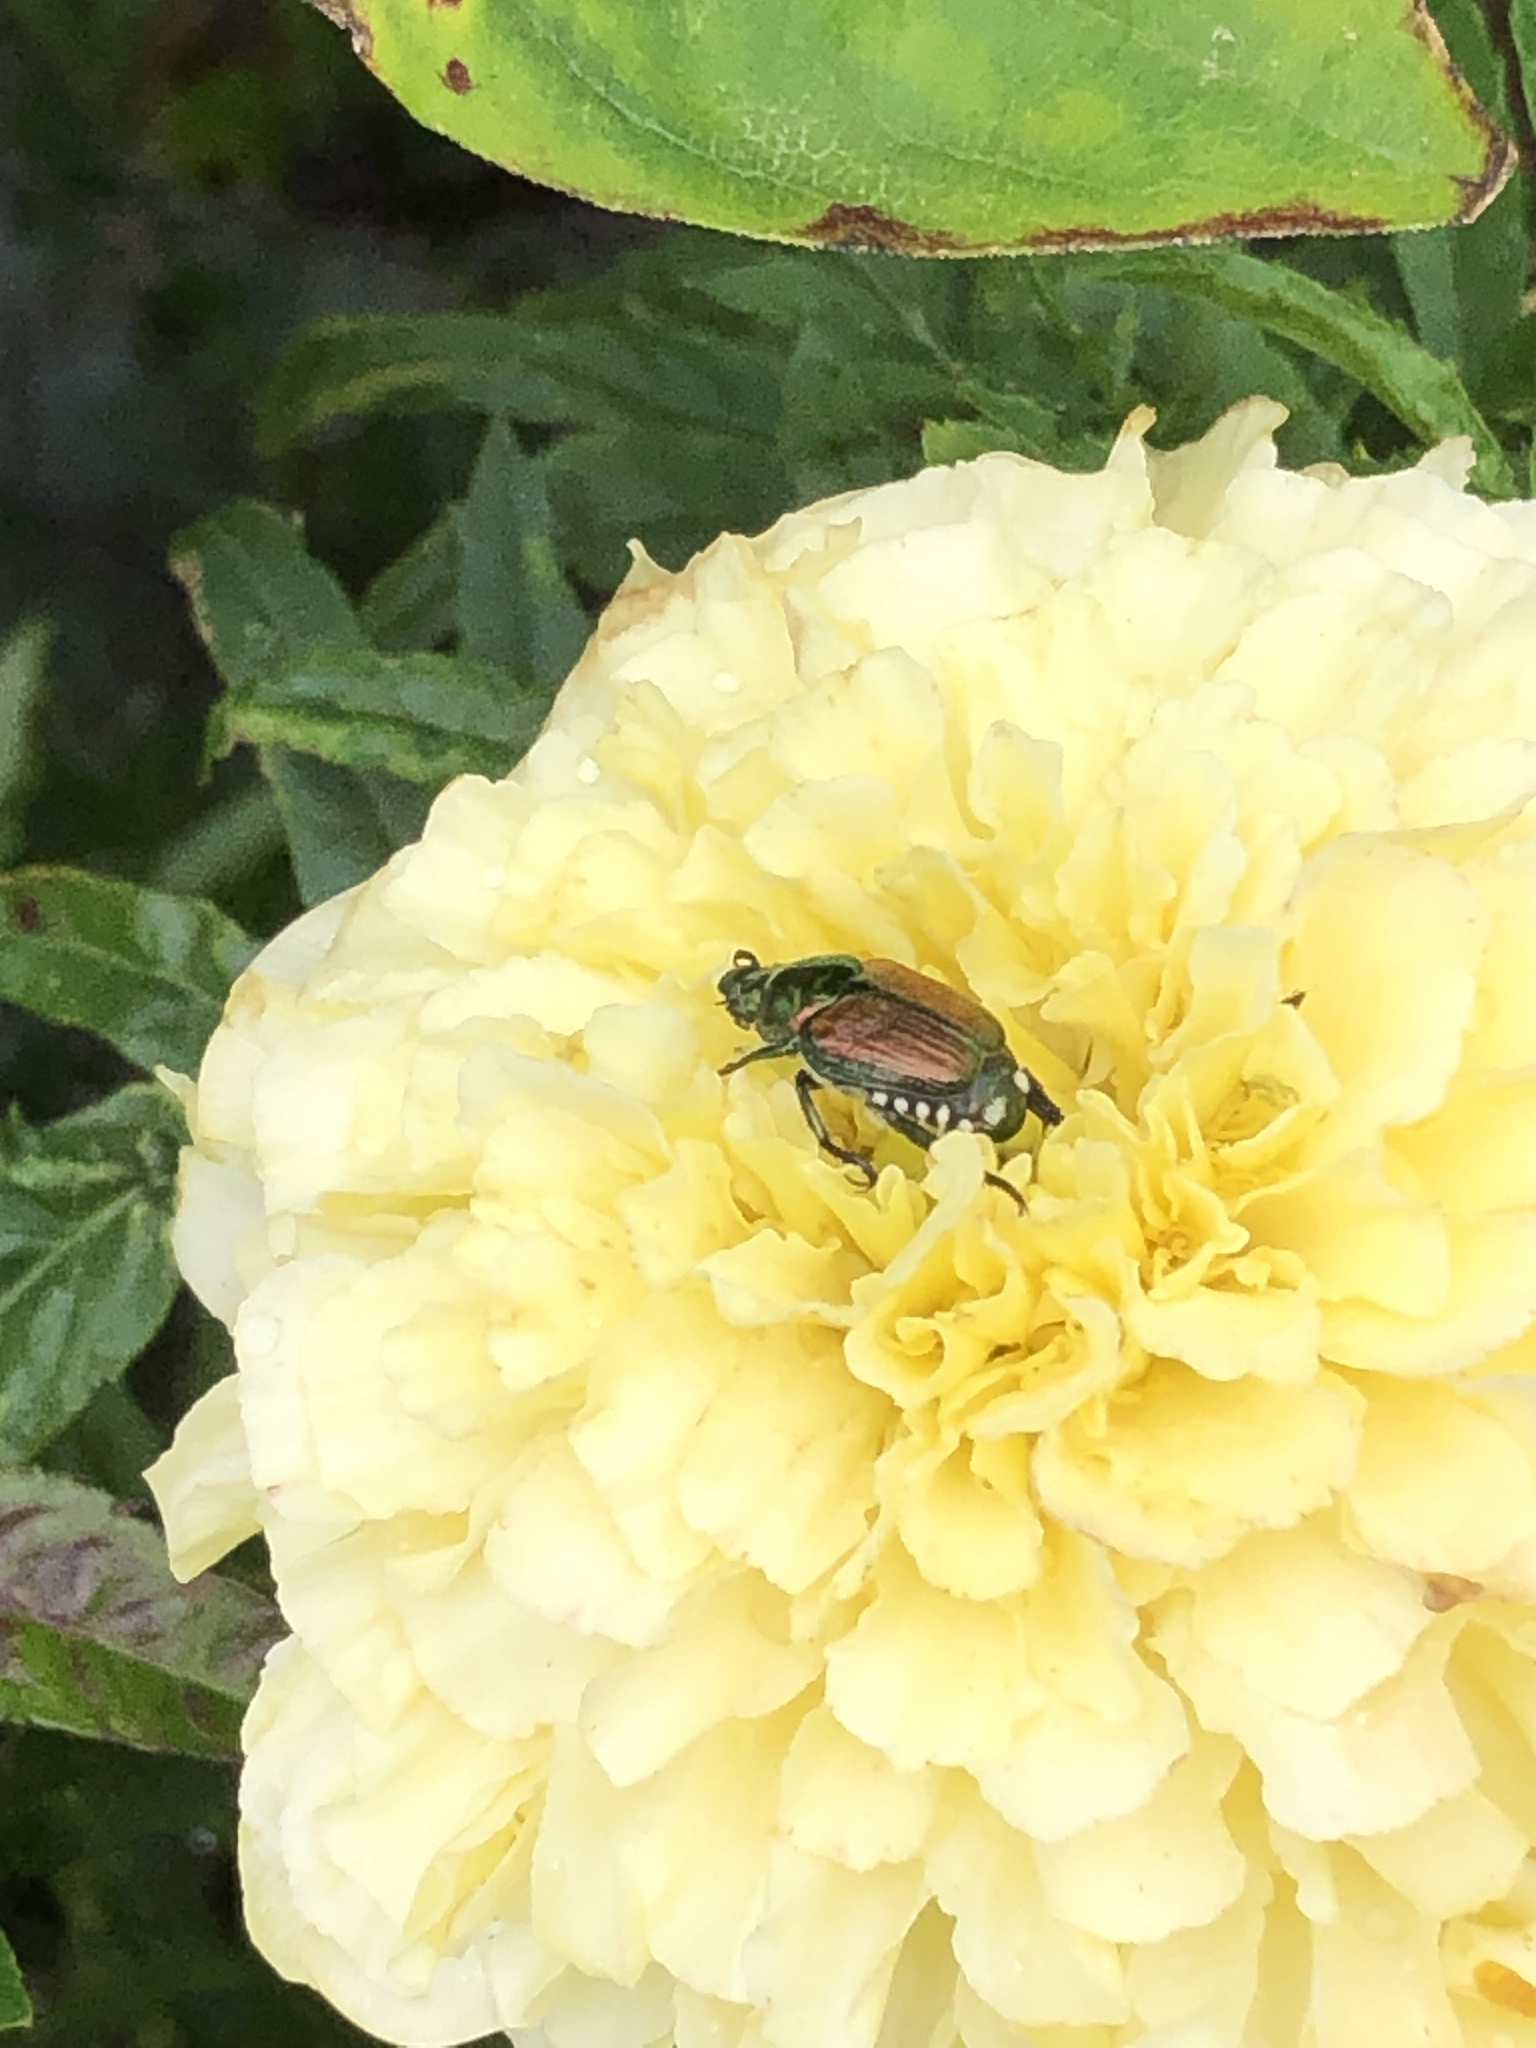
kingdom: Animalia
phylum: Arthropoda
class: Insecta
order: Coleoptera
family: Scarabaeidae
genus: Popillia
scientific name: Popillia japonica
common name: Japanese beetle
